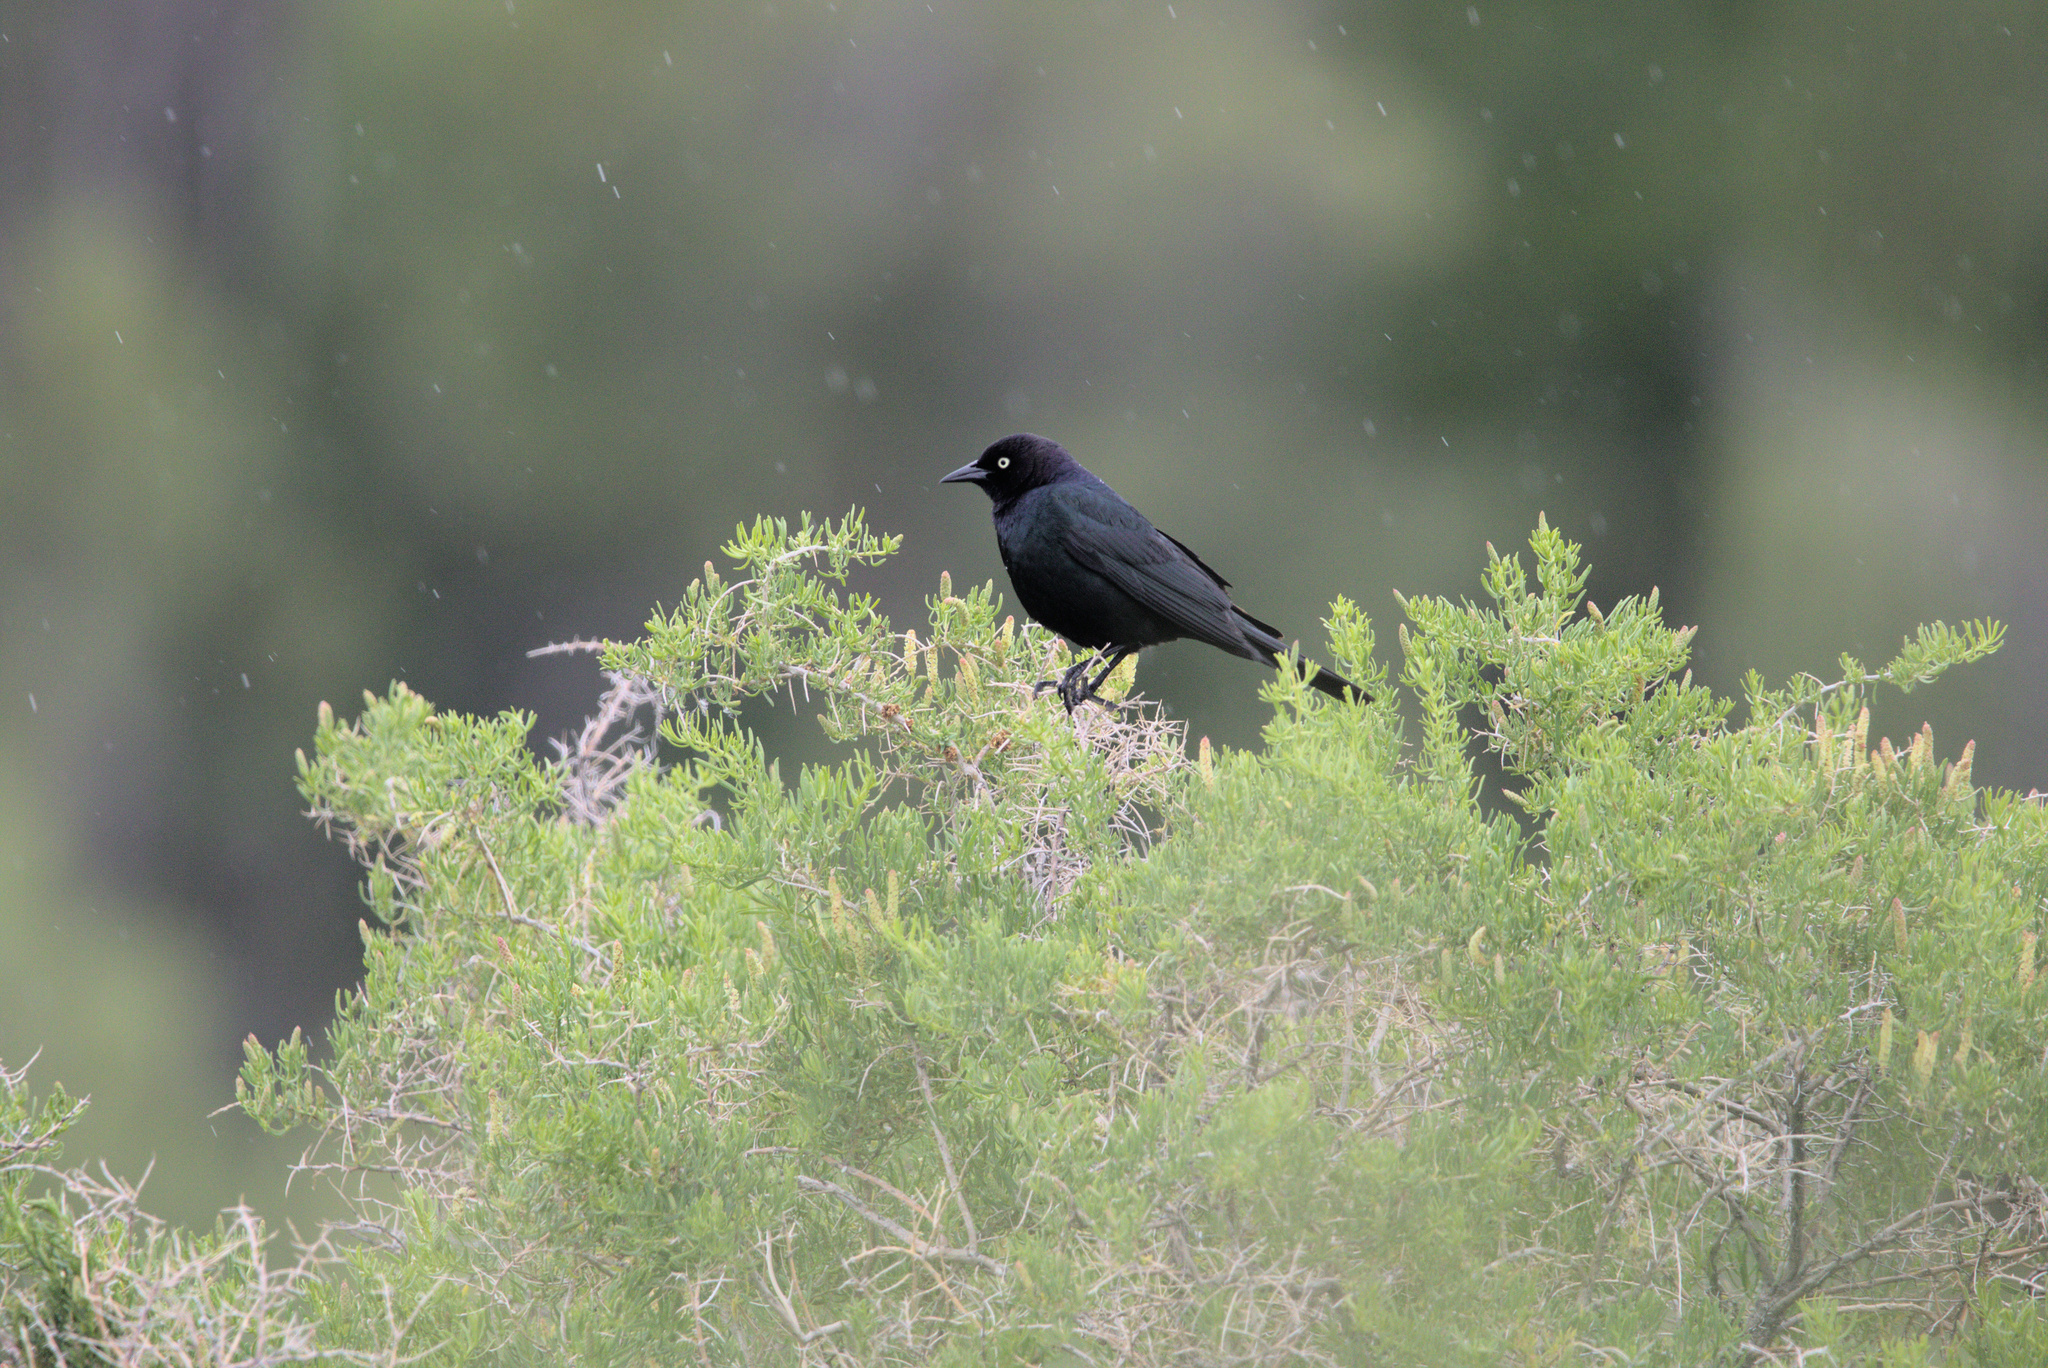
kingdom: Animalia
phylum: Chordata
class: Aves
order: Passeriformes
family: Icteridae
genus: Euphagus
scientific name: Euphagus cyanocephalus
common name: Brewer's blackbird
